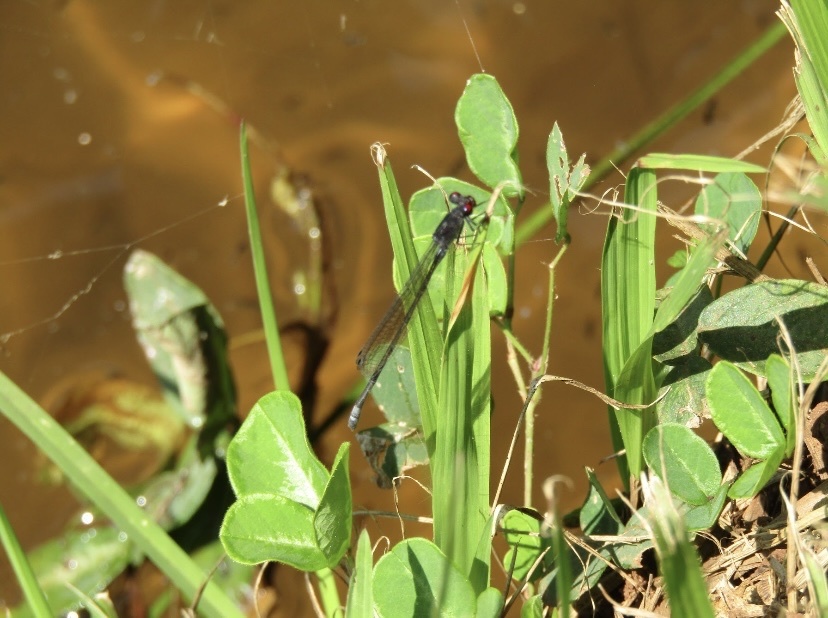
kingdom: Animalia
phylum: Arthropoda
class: Insecta
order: Odonata
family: Coenagrionidae
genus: Pseudagrion
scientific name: Pseudagrion hamoni
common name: Swarthy sprite
